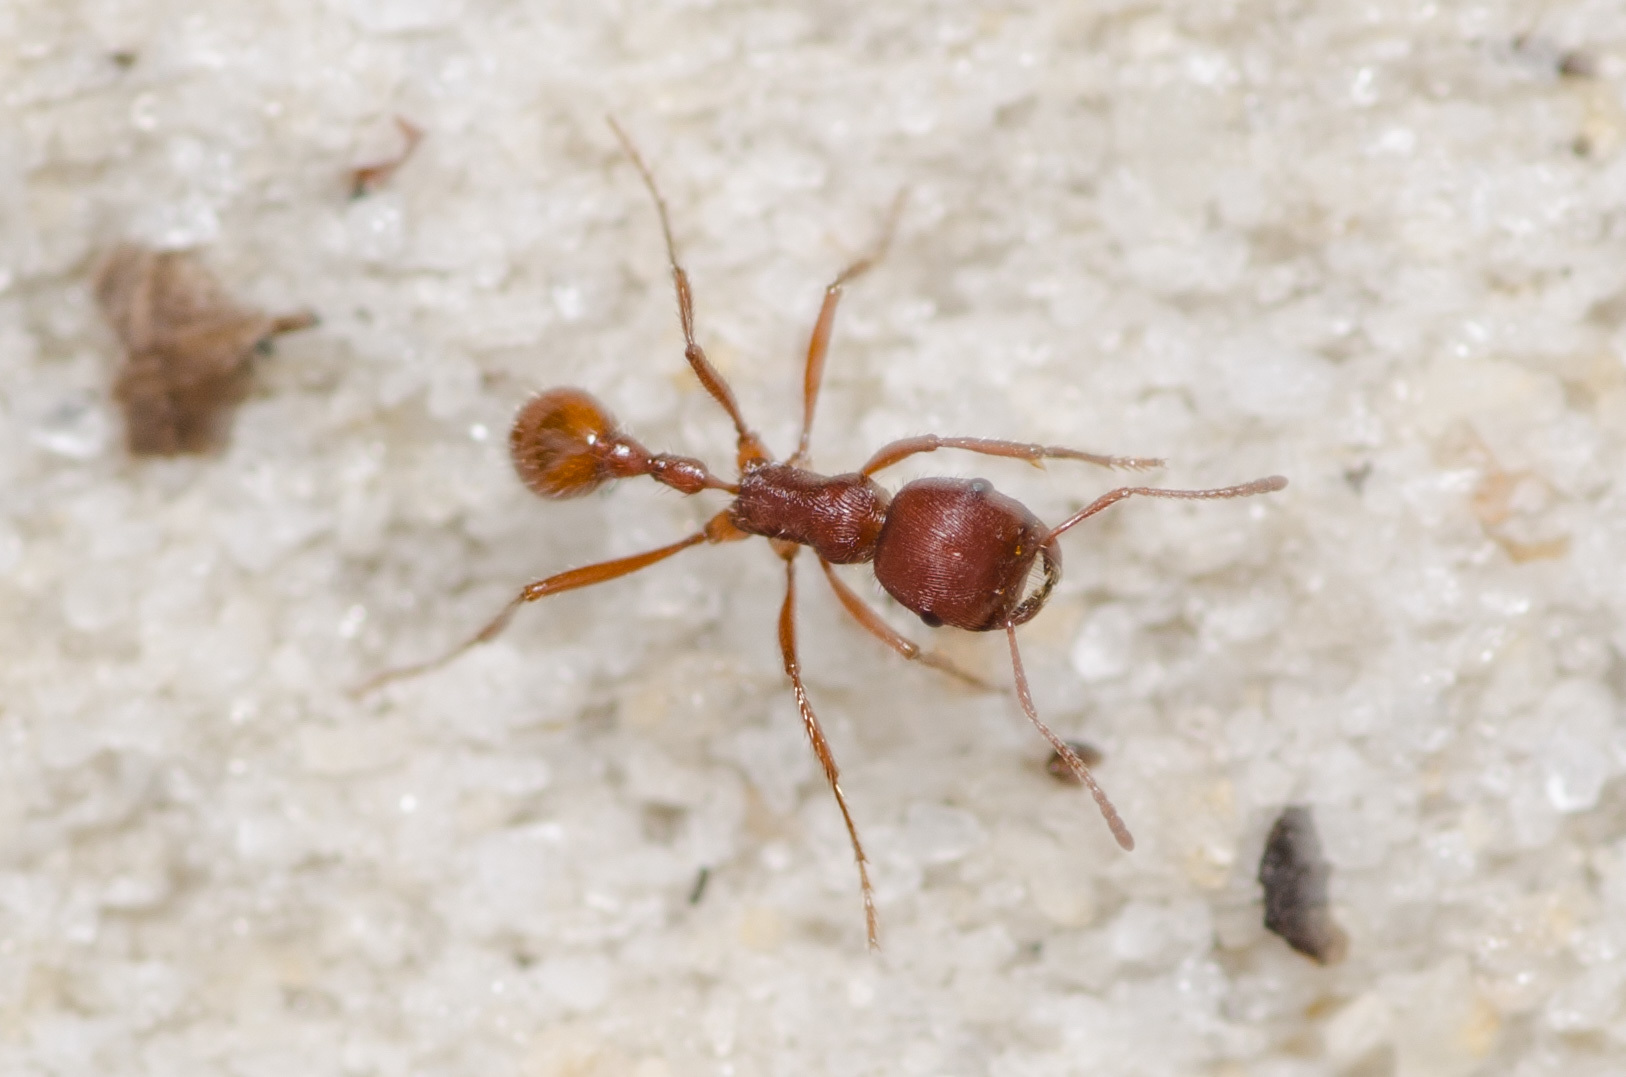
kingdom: Animalia
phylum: Arthropoda
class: Insecta
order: Hymenoptera
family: Formicidae
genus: Pogonomyrmex
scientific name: Pogonomyrmex badius
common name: Florida harvester ant
